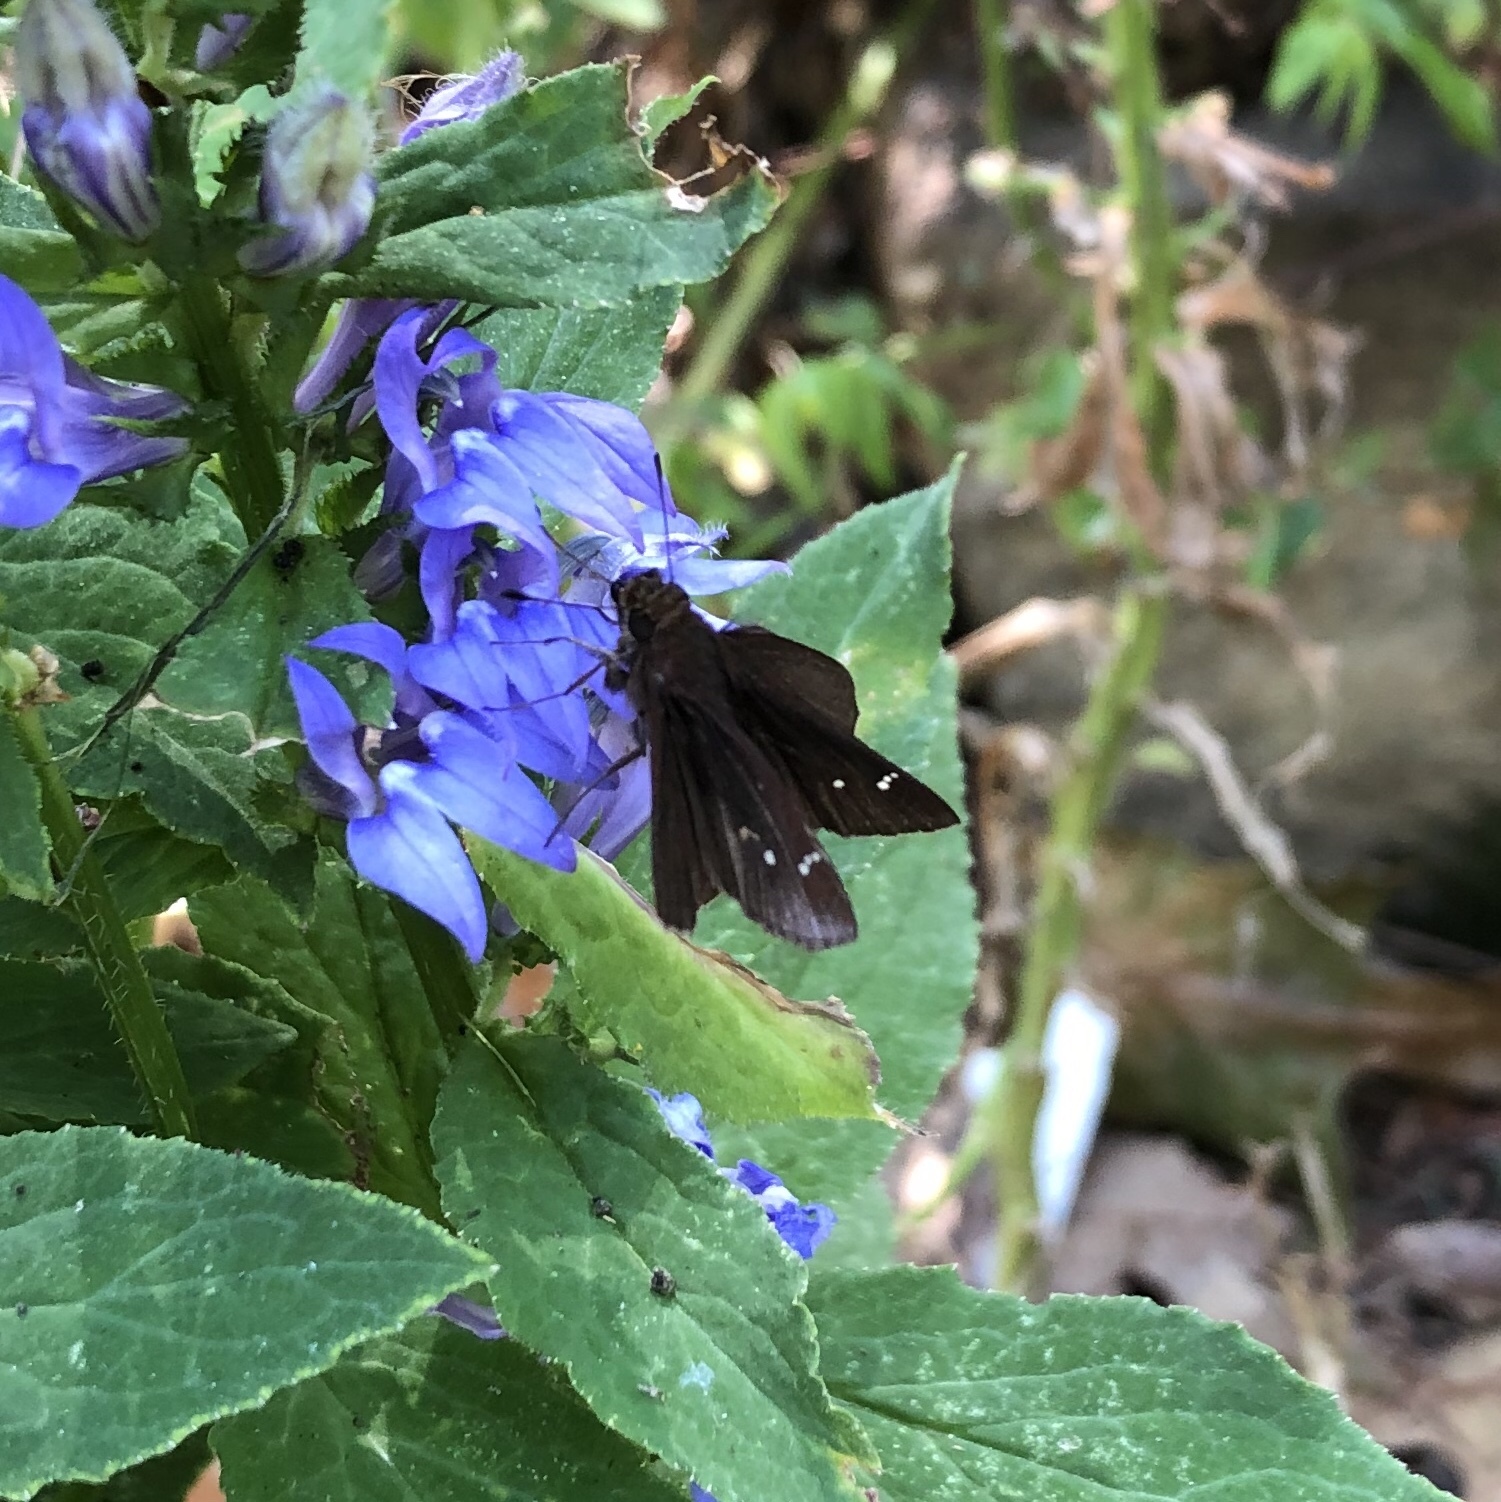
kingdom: Animalia
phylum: Arthropoda
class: Insecta
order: Lepidoptera
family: Hesperiidae
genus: Lerema
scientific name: Lerema accius
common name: Clouded skipper
